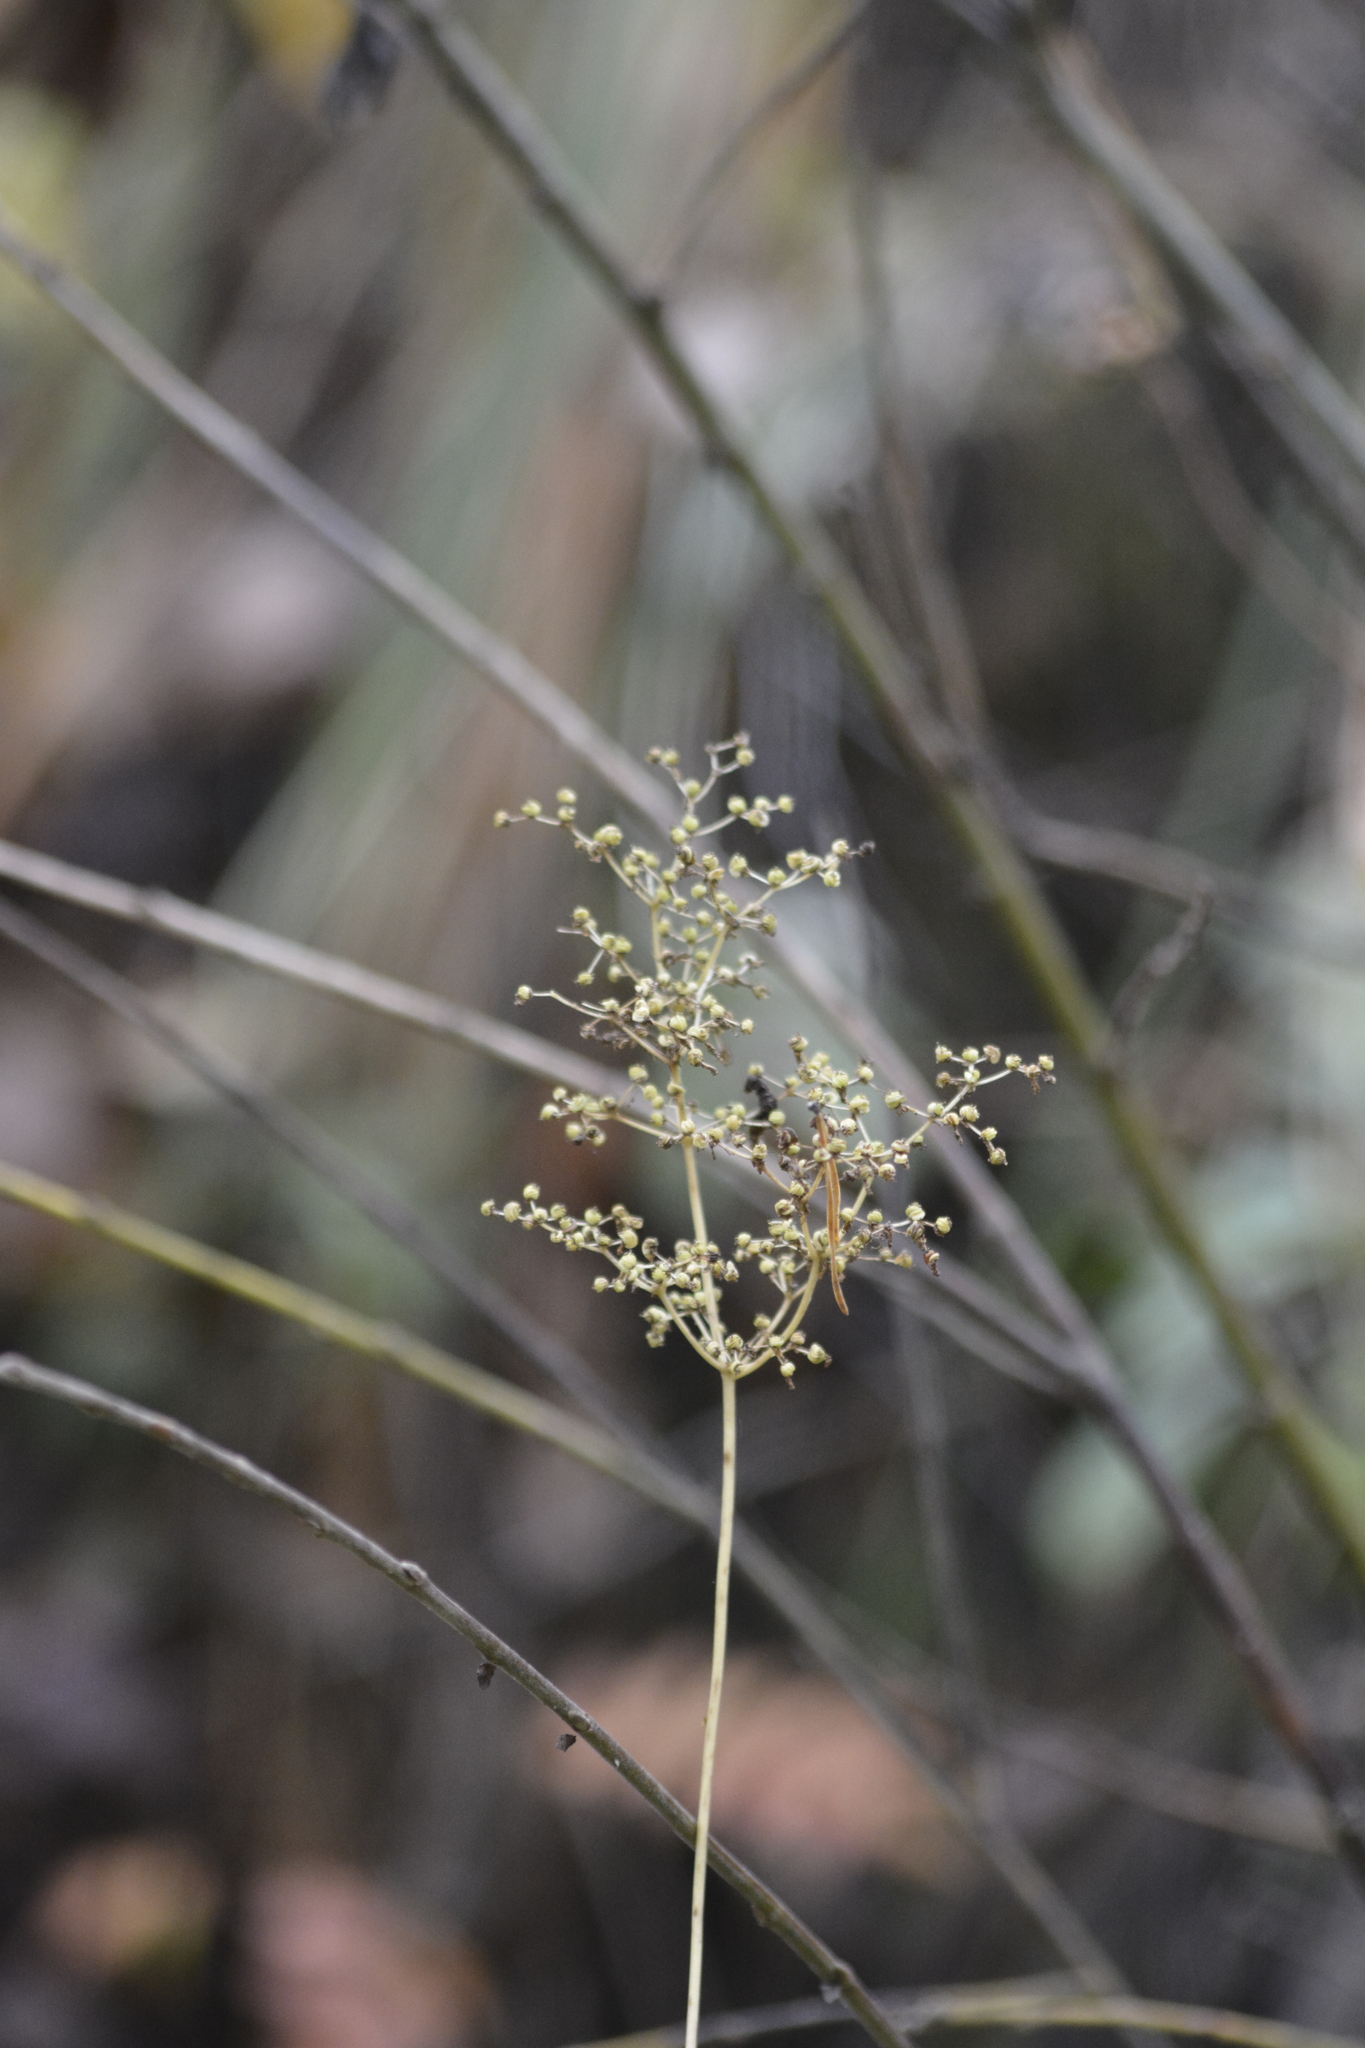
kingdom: Plantae
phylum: Tracheophyta
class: Magnoliopsida
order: Rosales
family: Rosaceae
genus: Filipendula
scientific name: Filipendula ulmaria
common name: Meadowsweet
